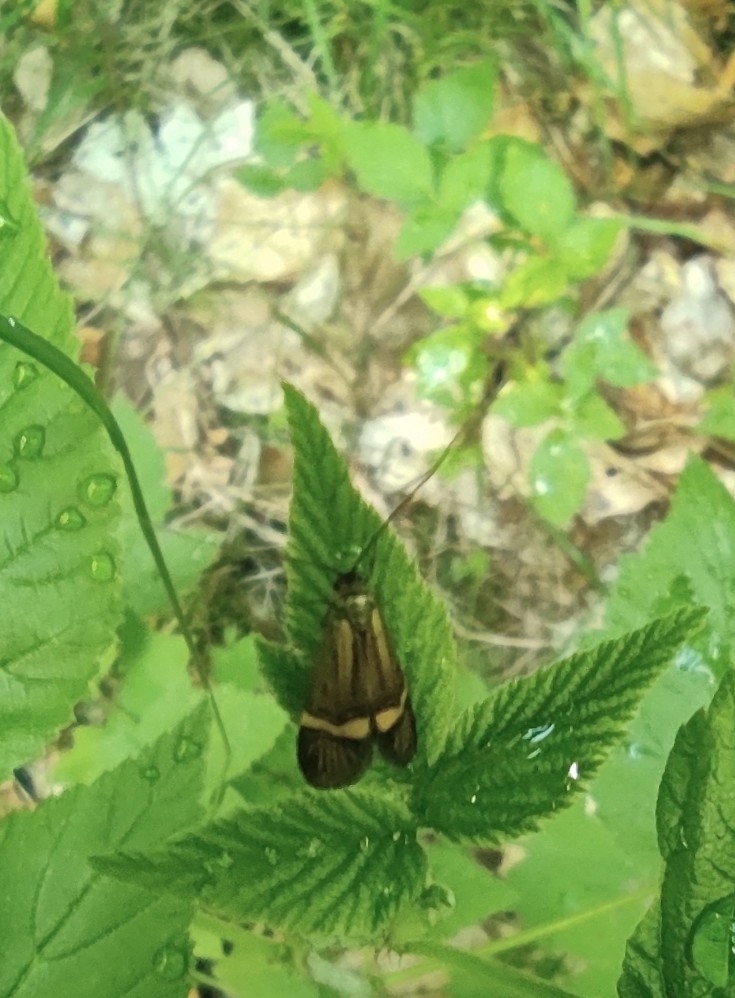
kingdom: Animalia
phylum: Arthropoda
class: Insecta
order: Lepidoptera
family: Adelidae
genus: Nemophora
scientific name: Nemophora
